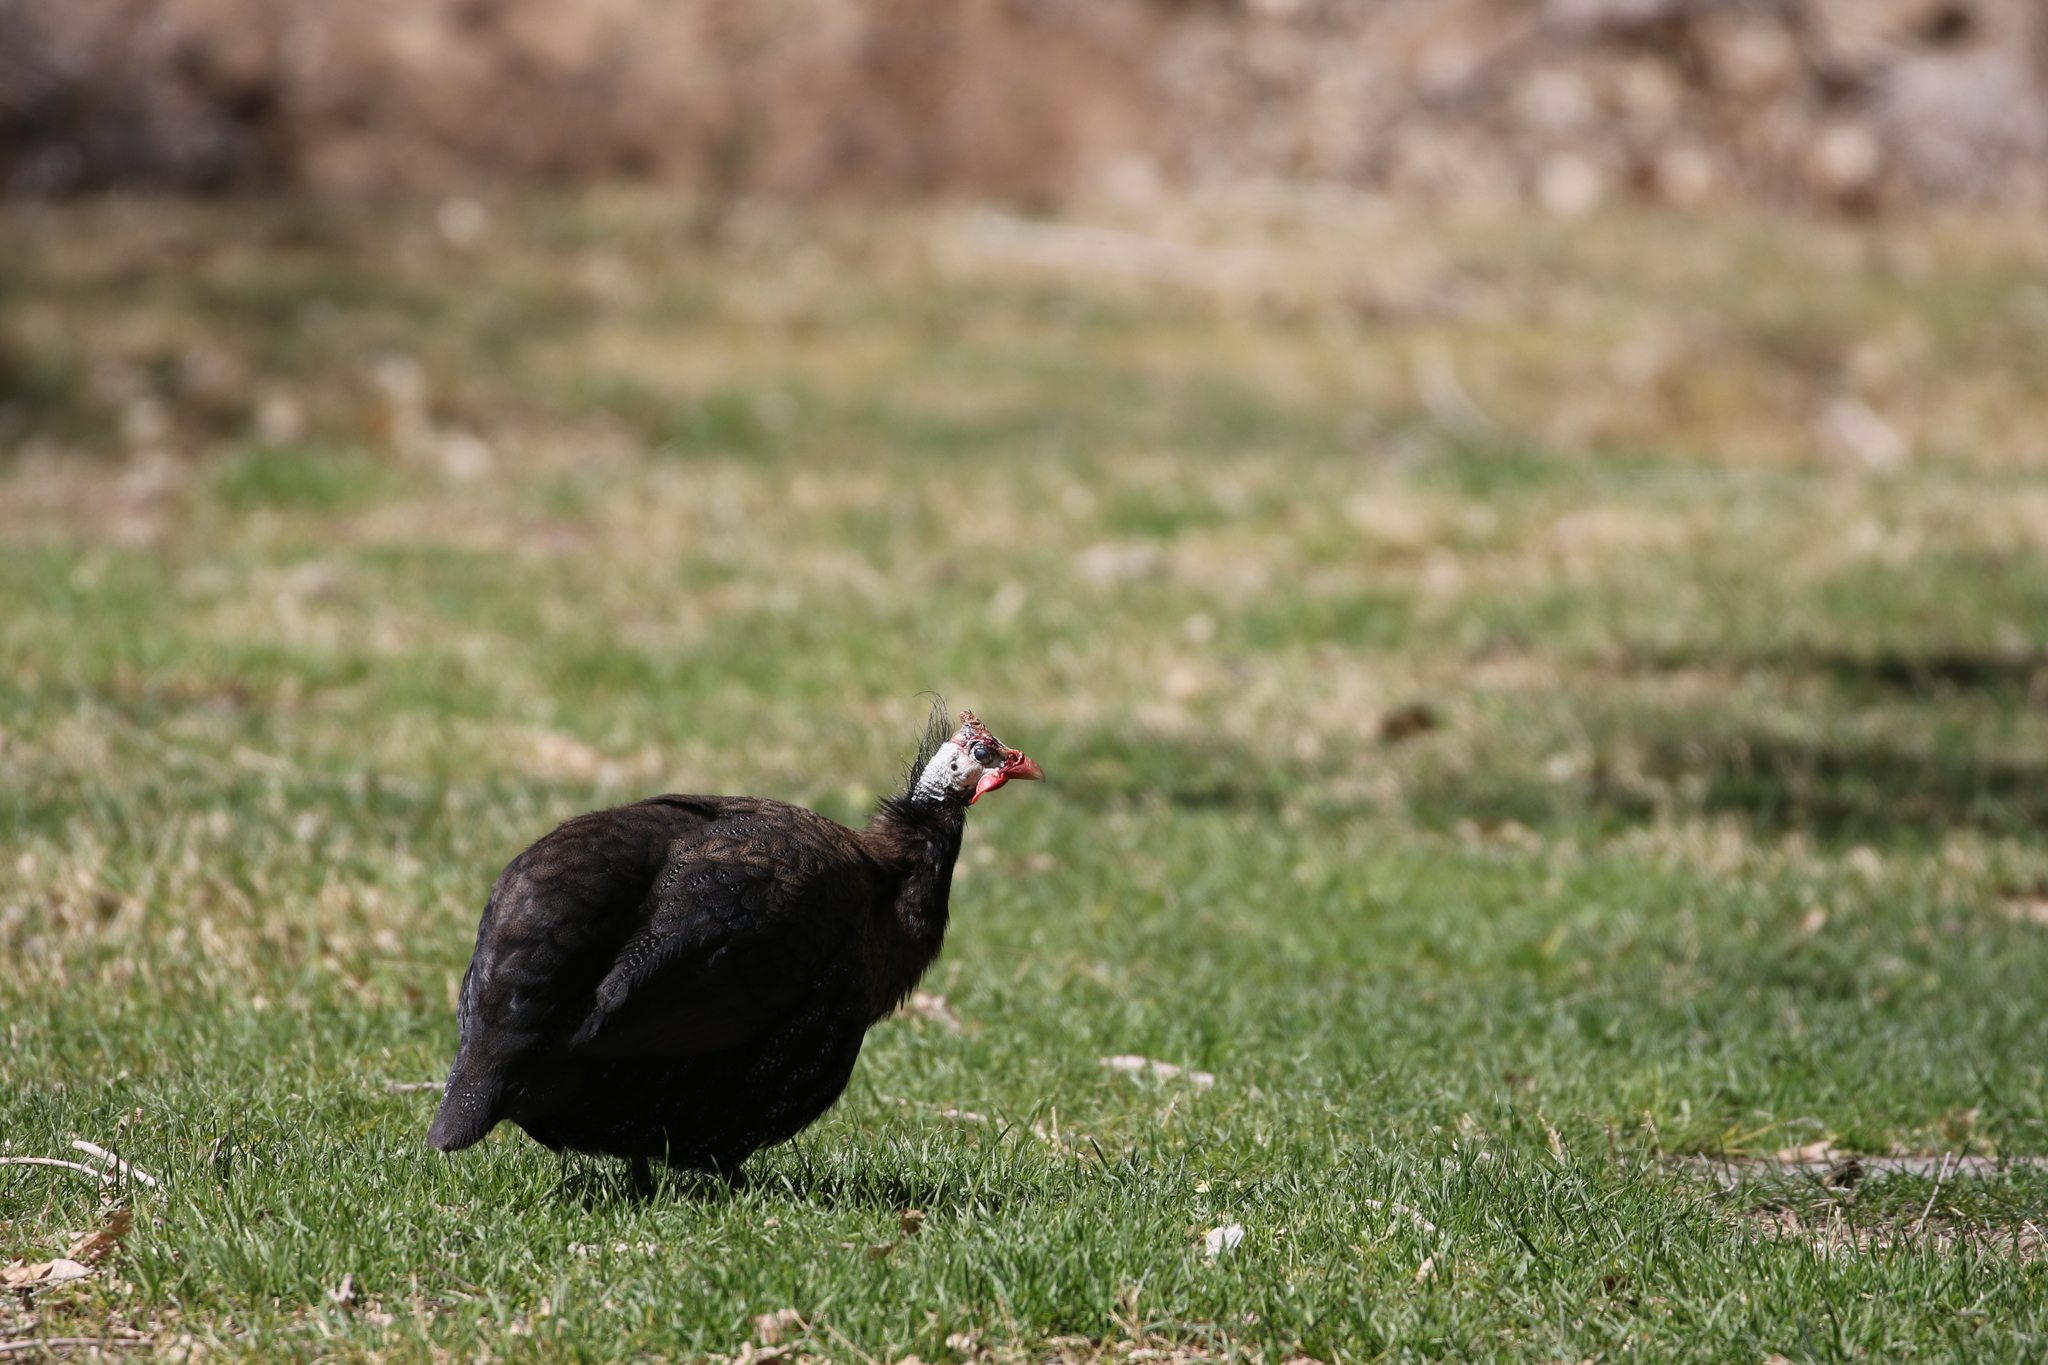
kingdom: Animalia
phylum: Chordata
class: Aves
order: Galliformes
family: Numididae
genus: Numida
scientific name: Numida meleagris
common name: Helmeted guineafowl
